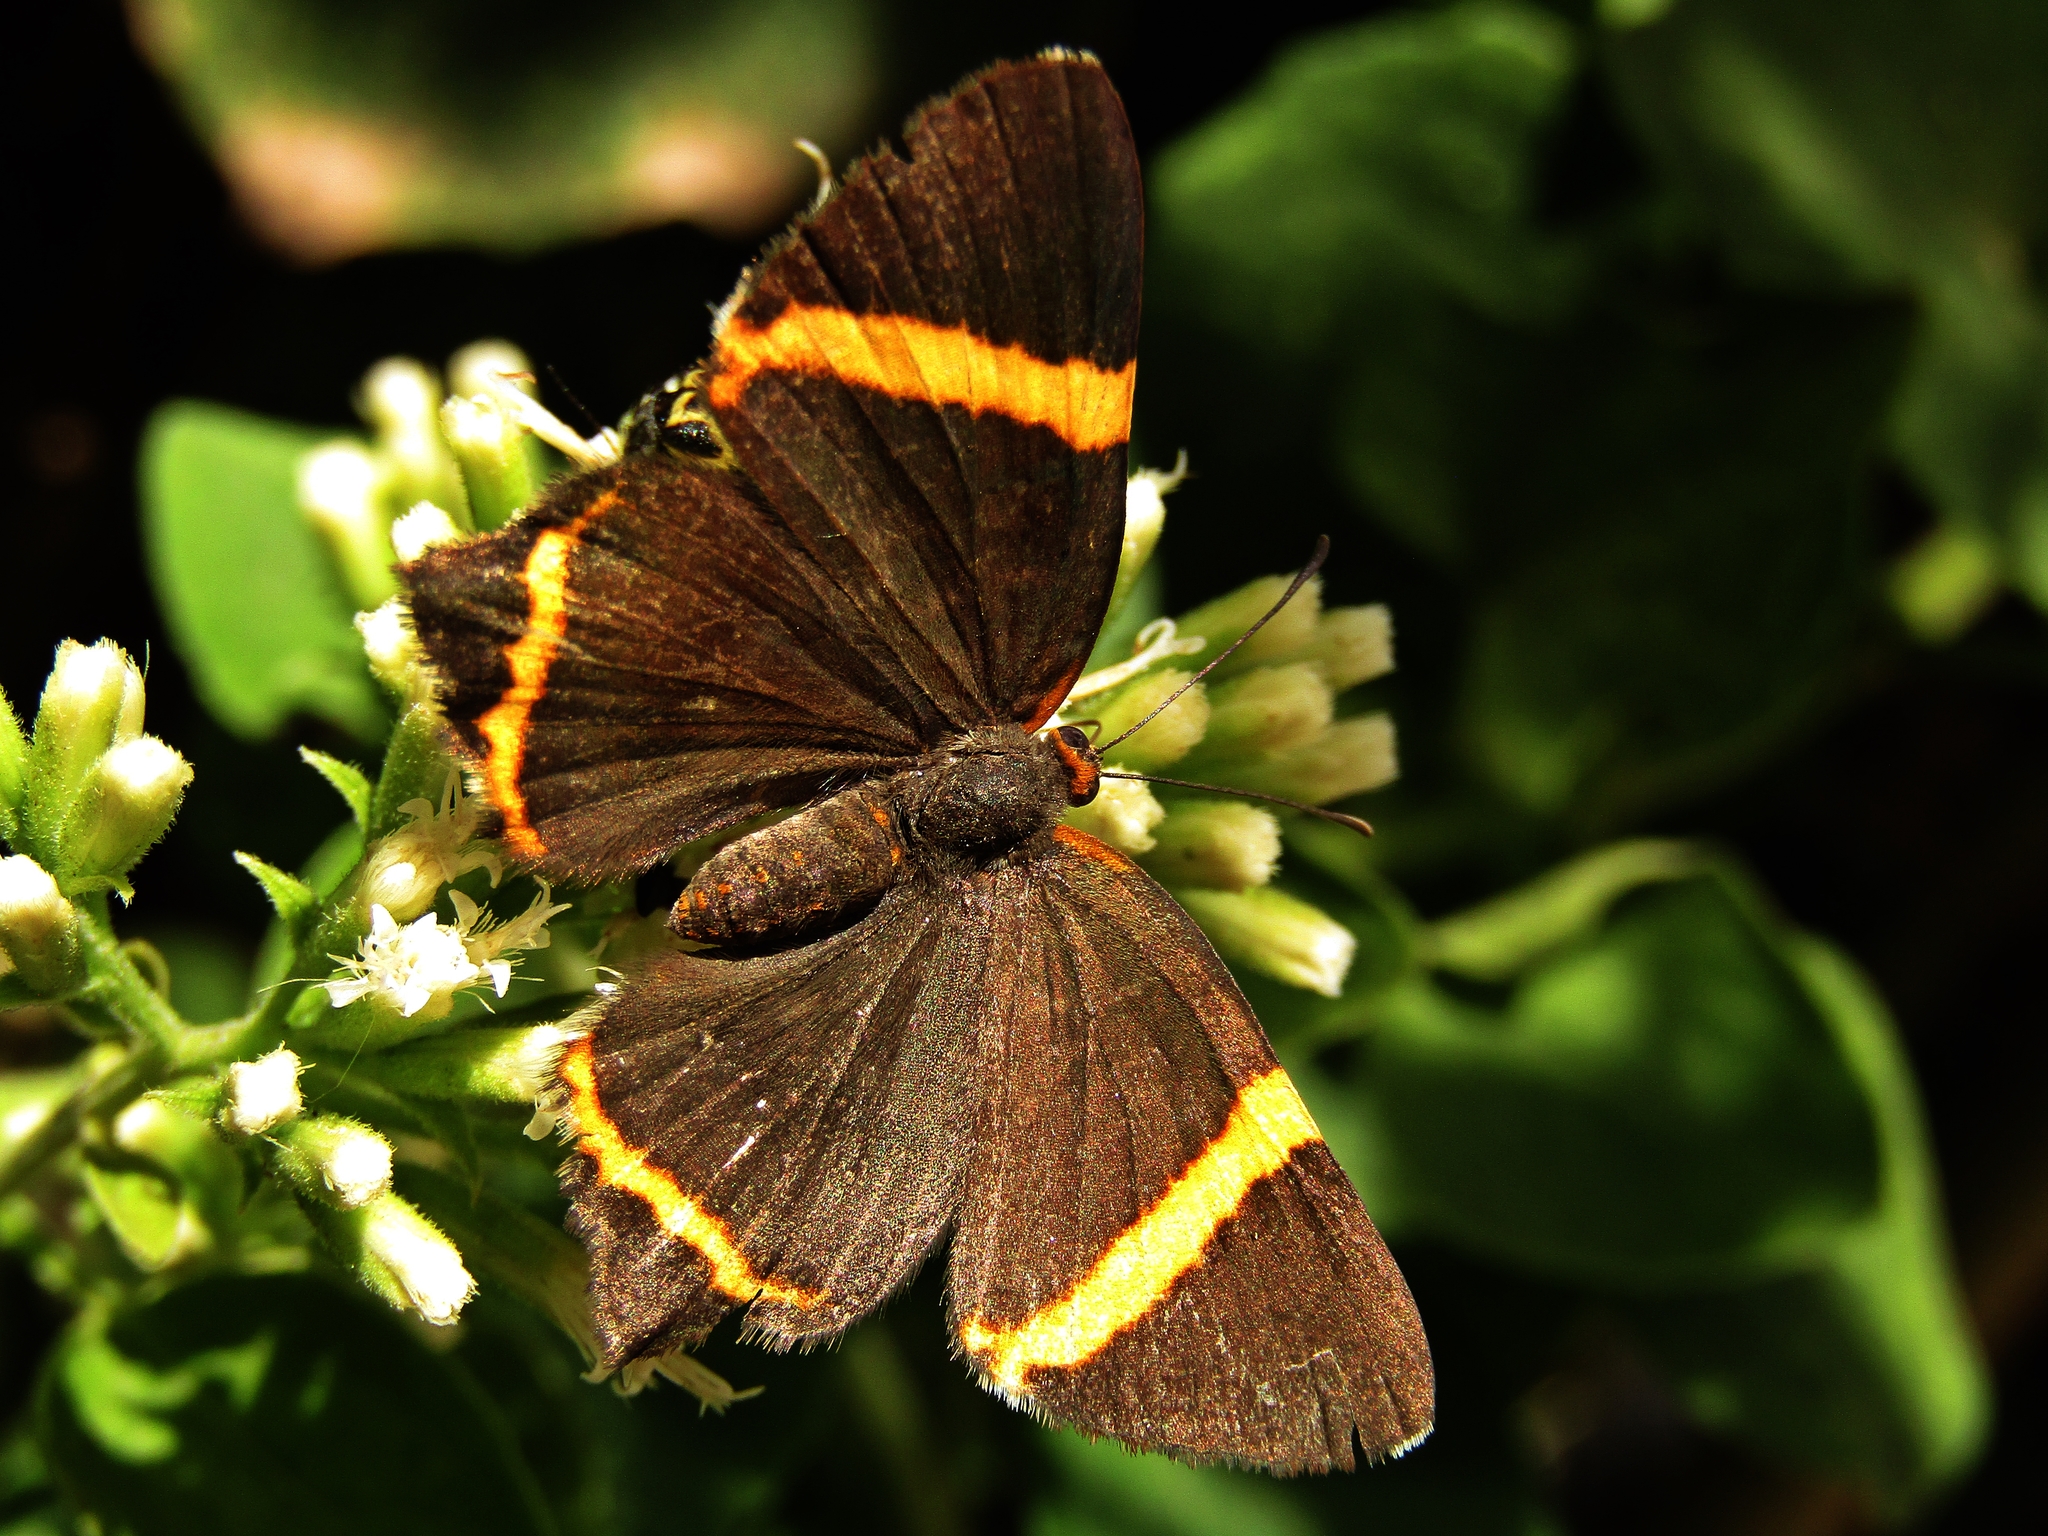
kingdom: Animalia
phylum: Arthropoda
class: Insecta
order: Lepidoptera
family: Riodinidae
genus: Riodina
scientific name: Riodina lysippoides
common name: Little dancer metalmark
